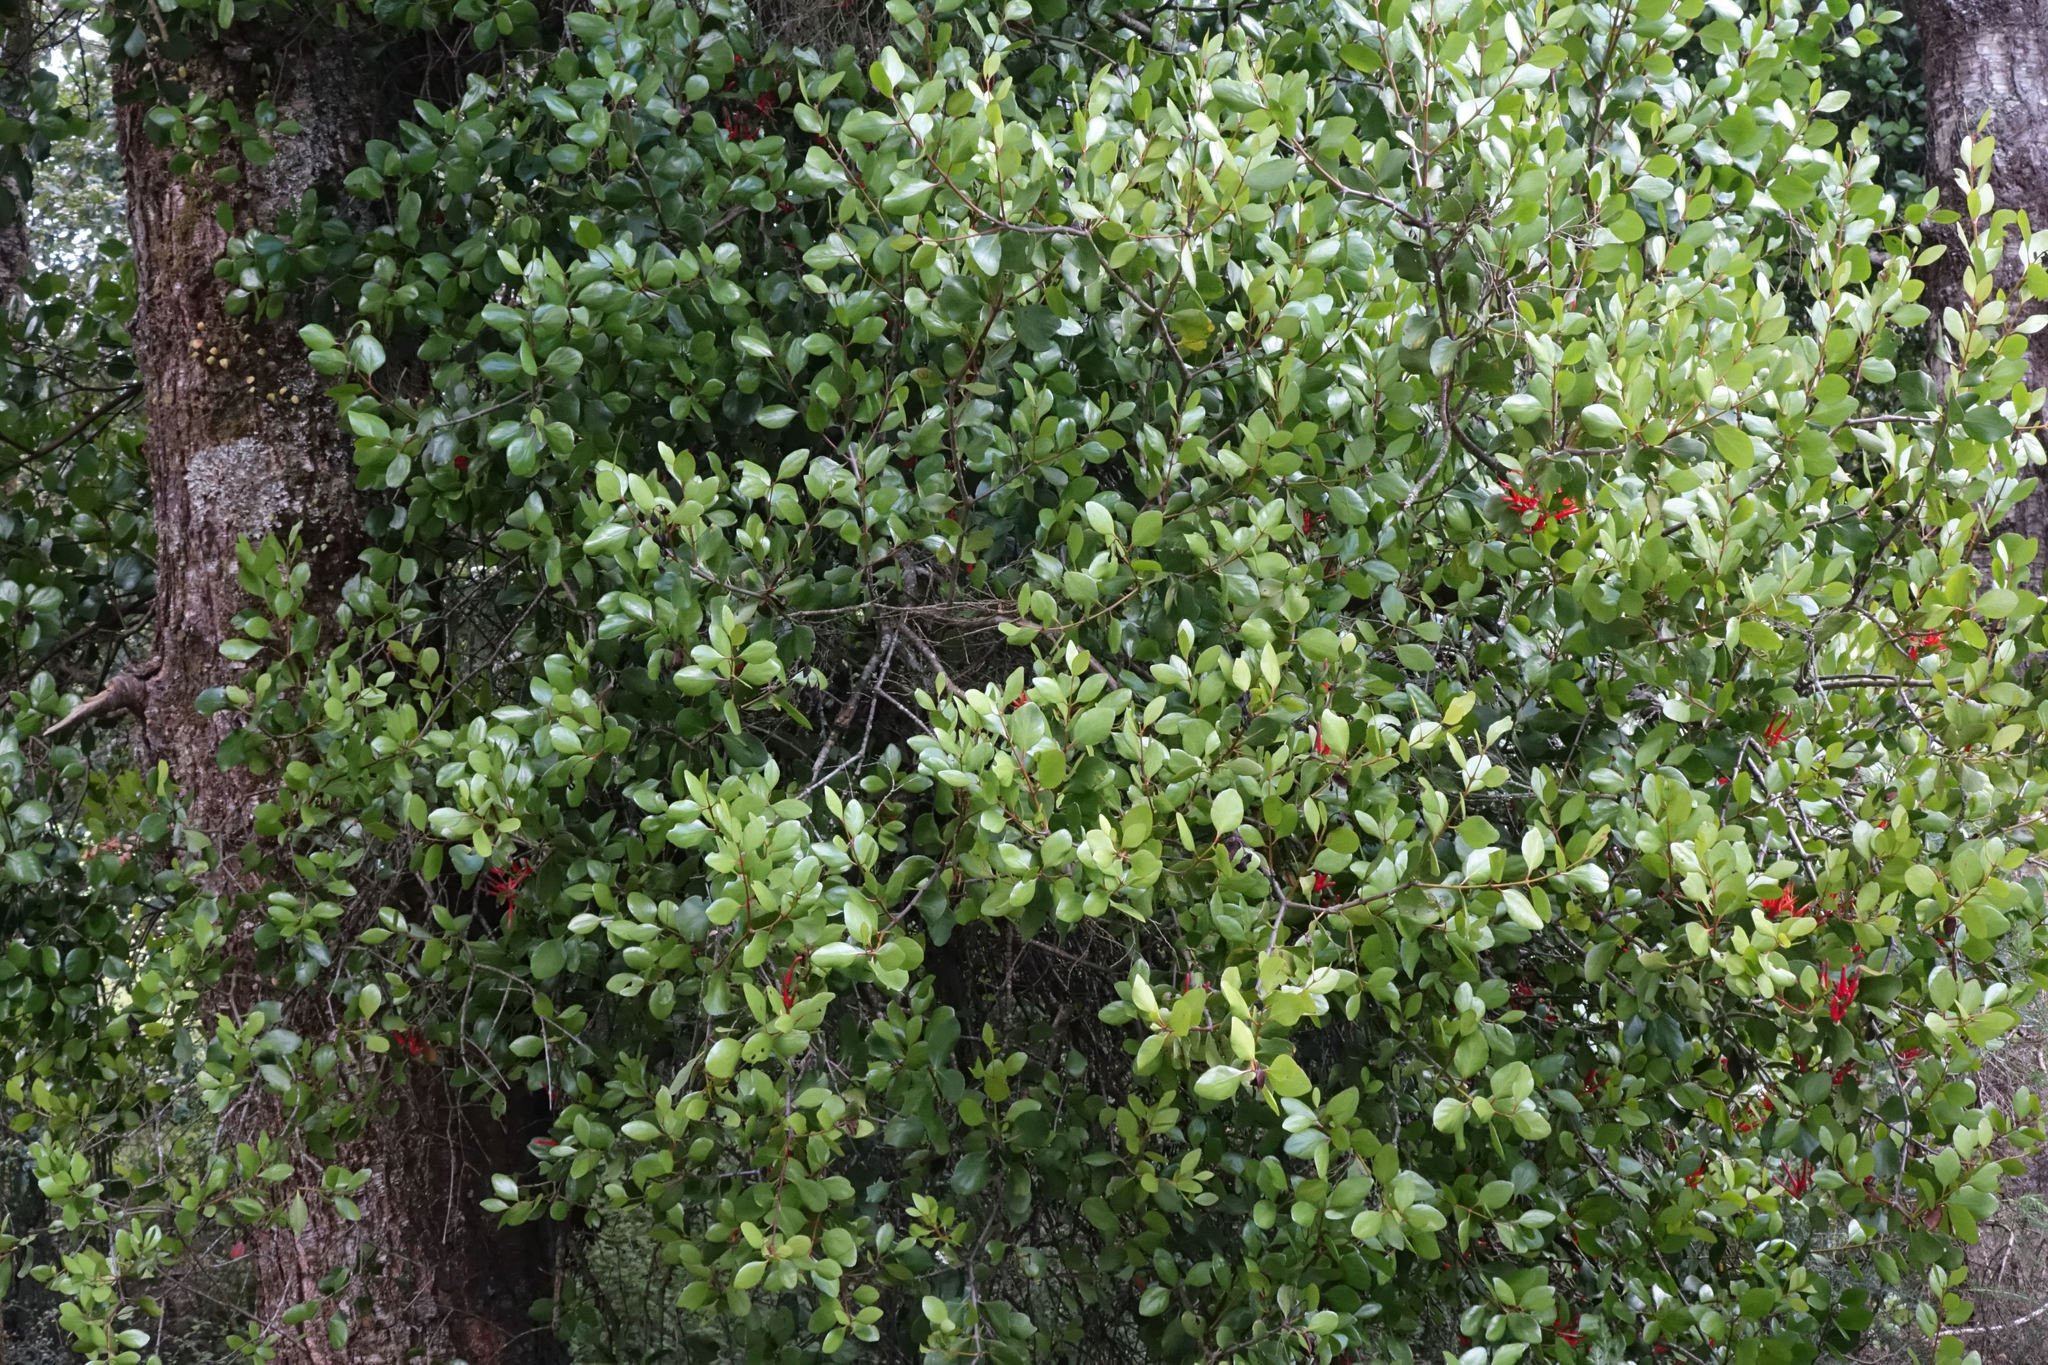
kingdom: Plantae
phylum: Tracheophyta
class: Magnoliopsida
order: Santalales
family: Loranthaceae
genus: Peraxilla
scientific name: Peraxilla colensoi
